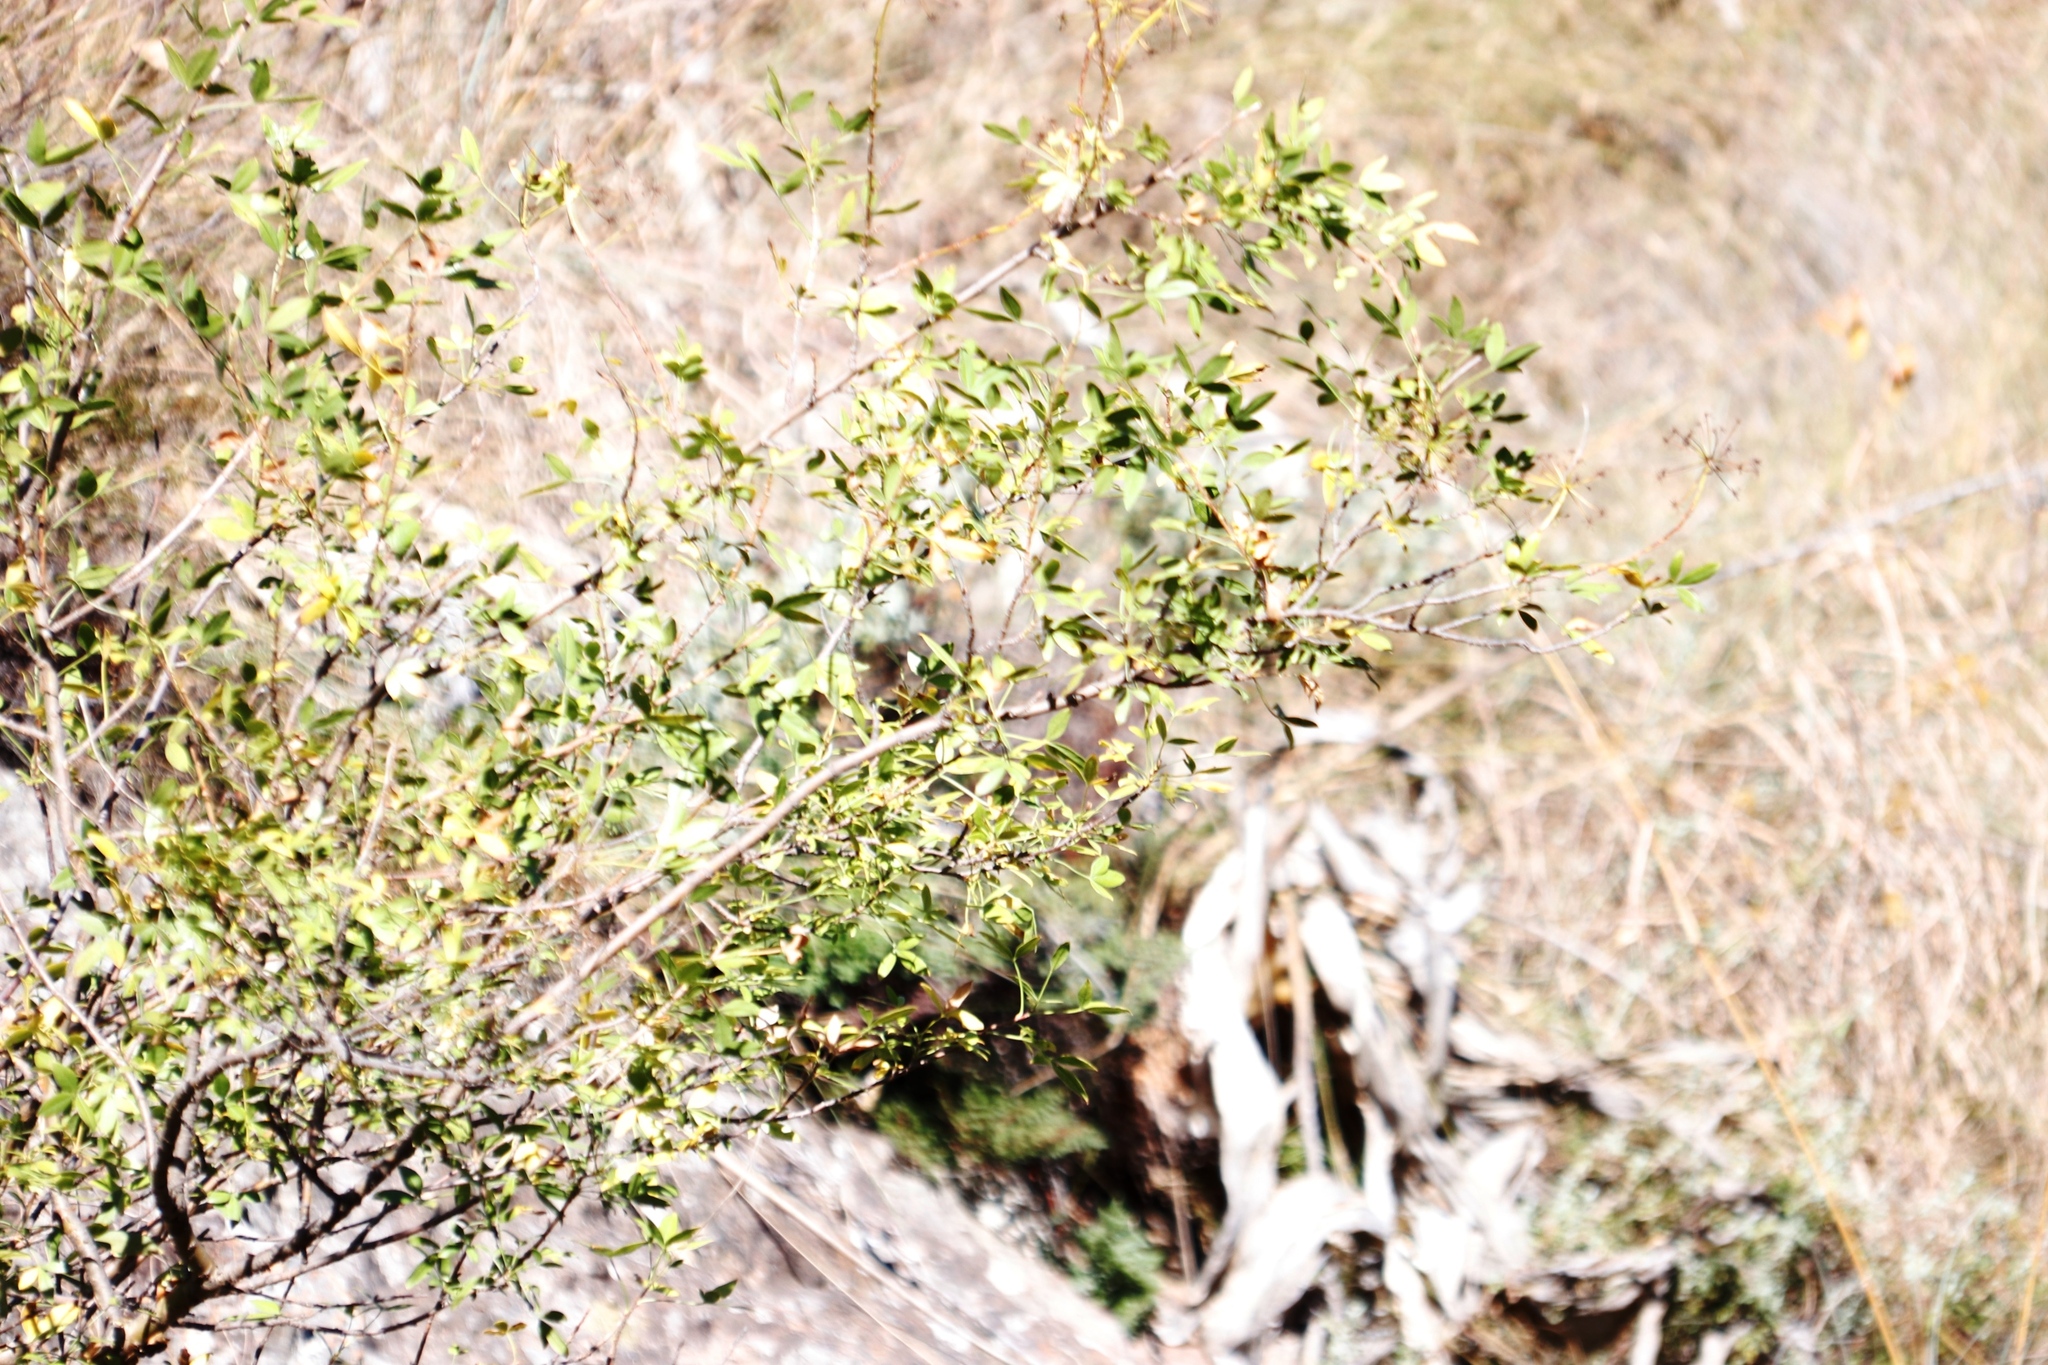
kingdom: Plantae
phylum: Tracheophyta
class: Magnoliopsida
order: Apiales
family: Apiaceae
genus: Heteromorpha
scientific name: Heteromorpha arborescens
